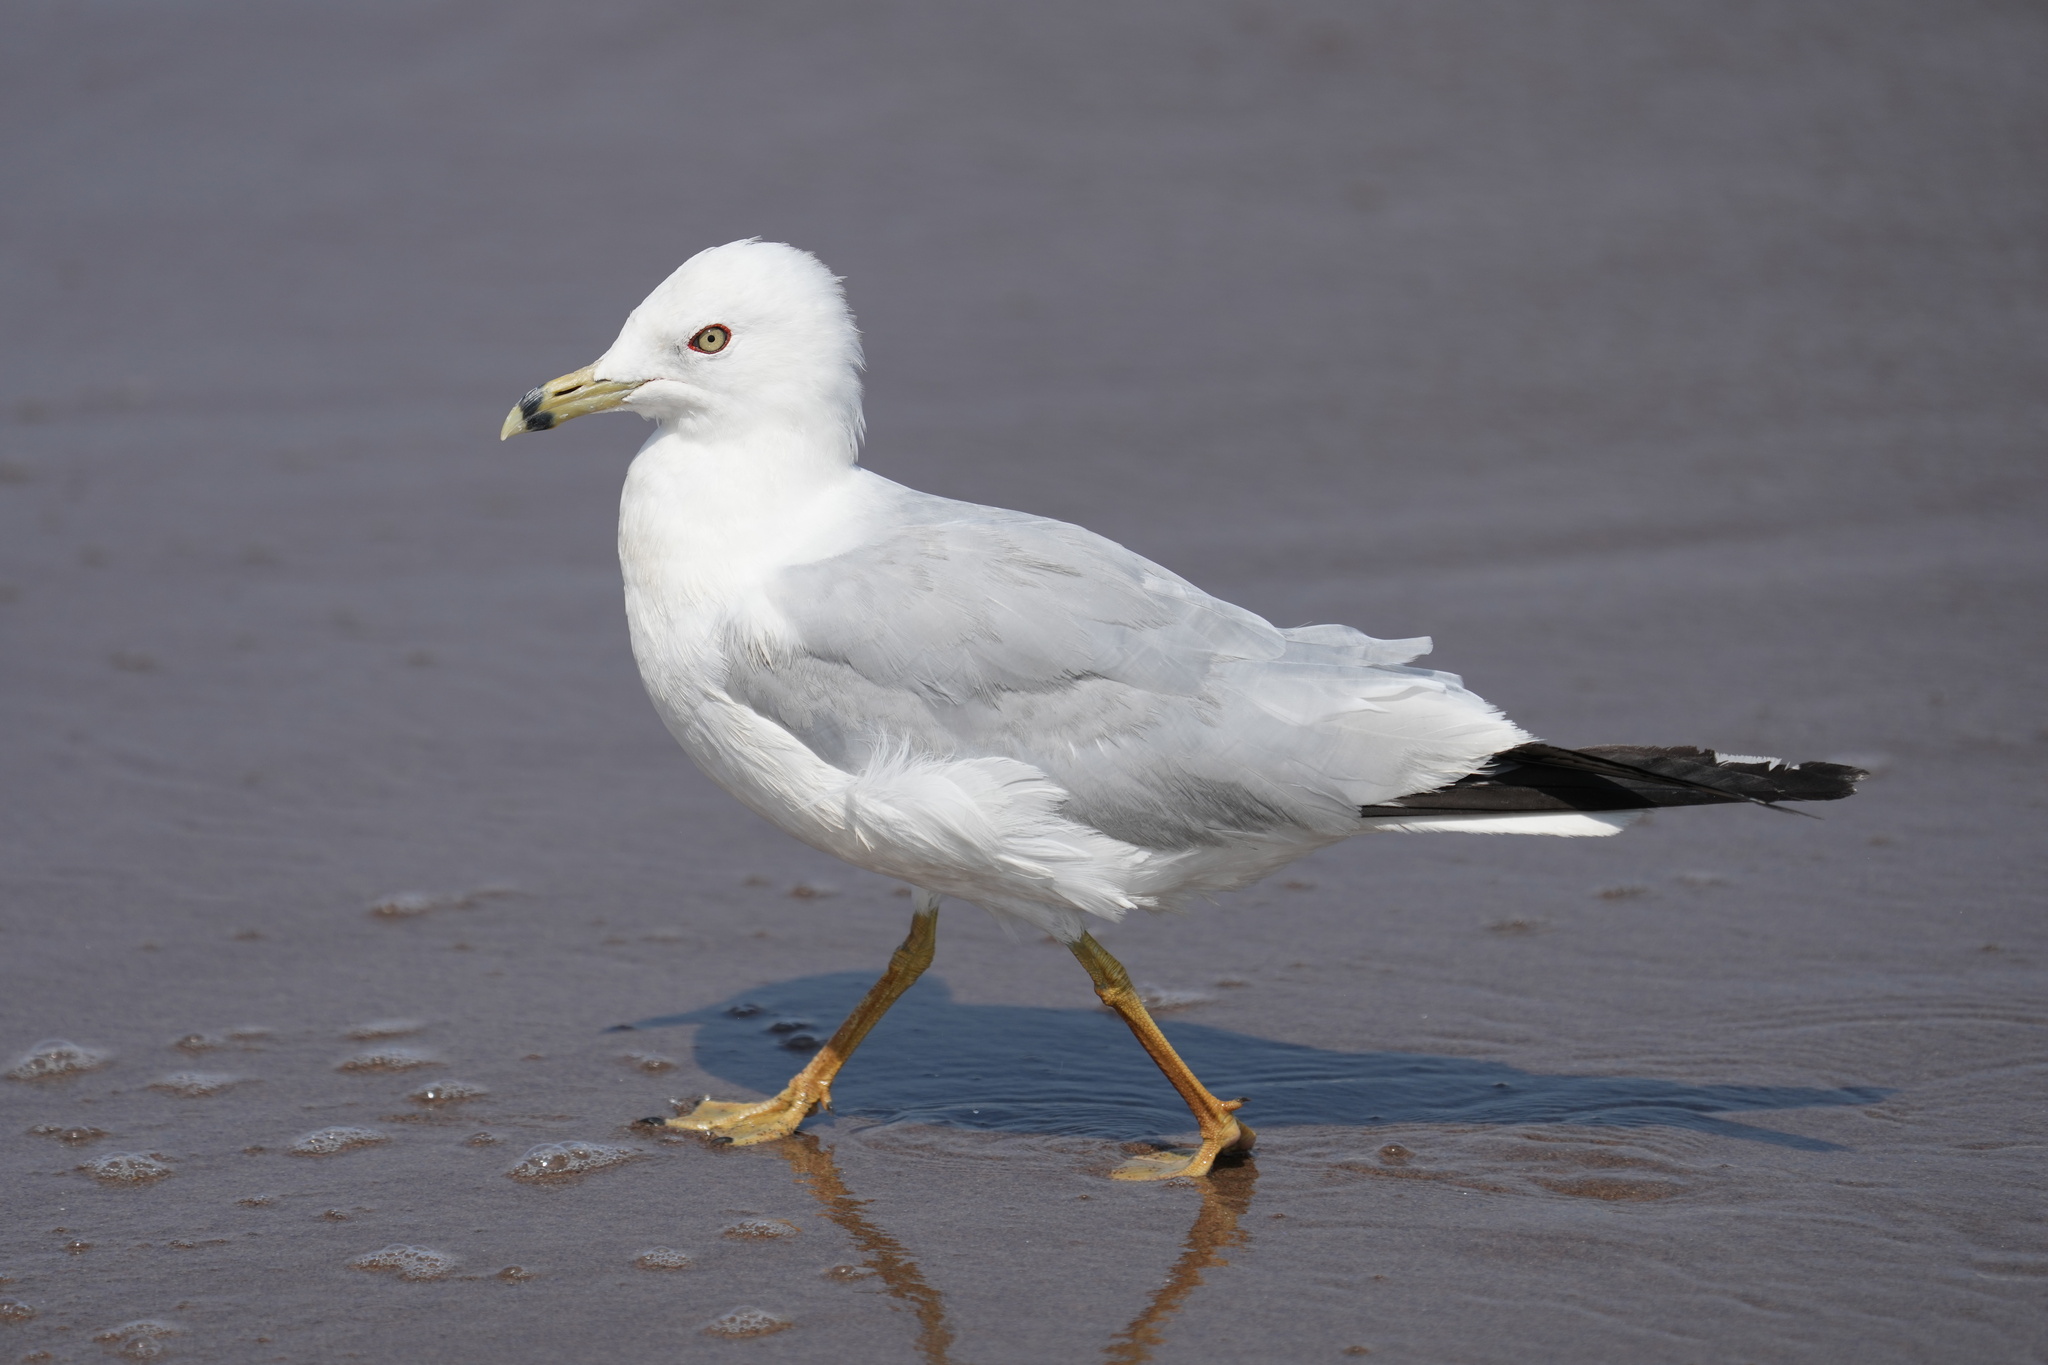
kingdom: Animalia
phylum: Chordata
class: Aves
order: Charadriiformes
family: Laridae
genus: Larus
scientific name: Larus delawarensis
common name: Ring-billed gull
